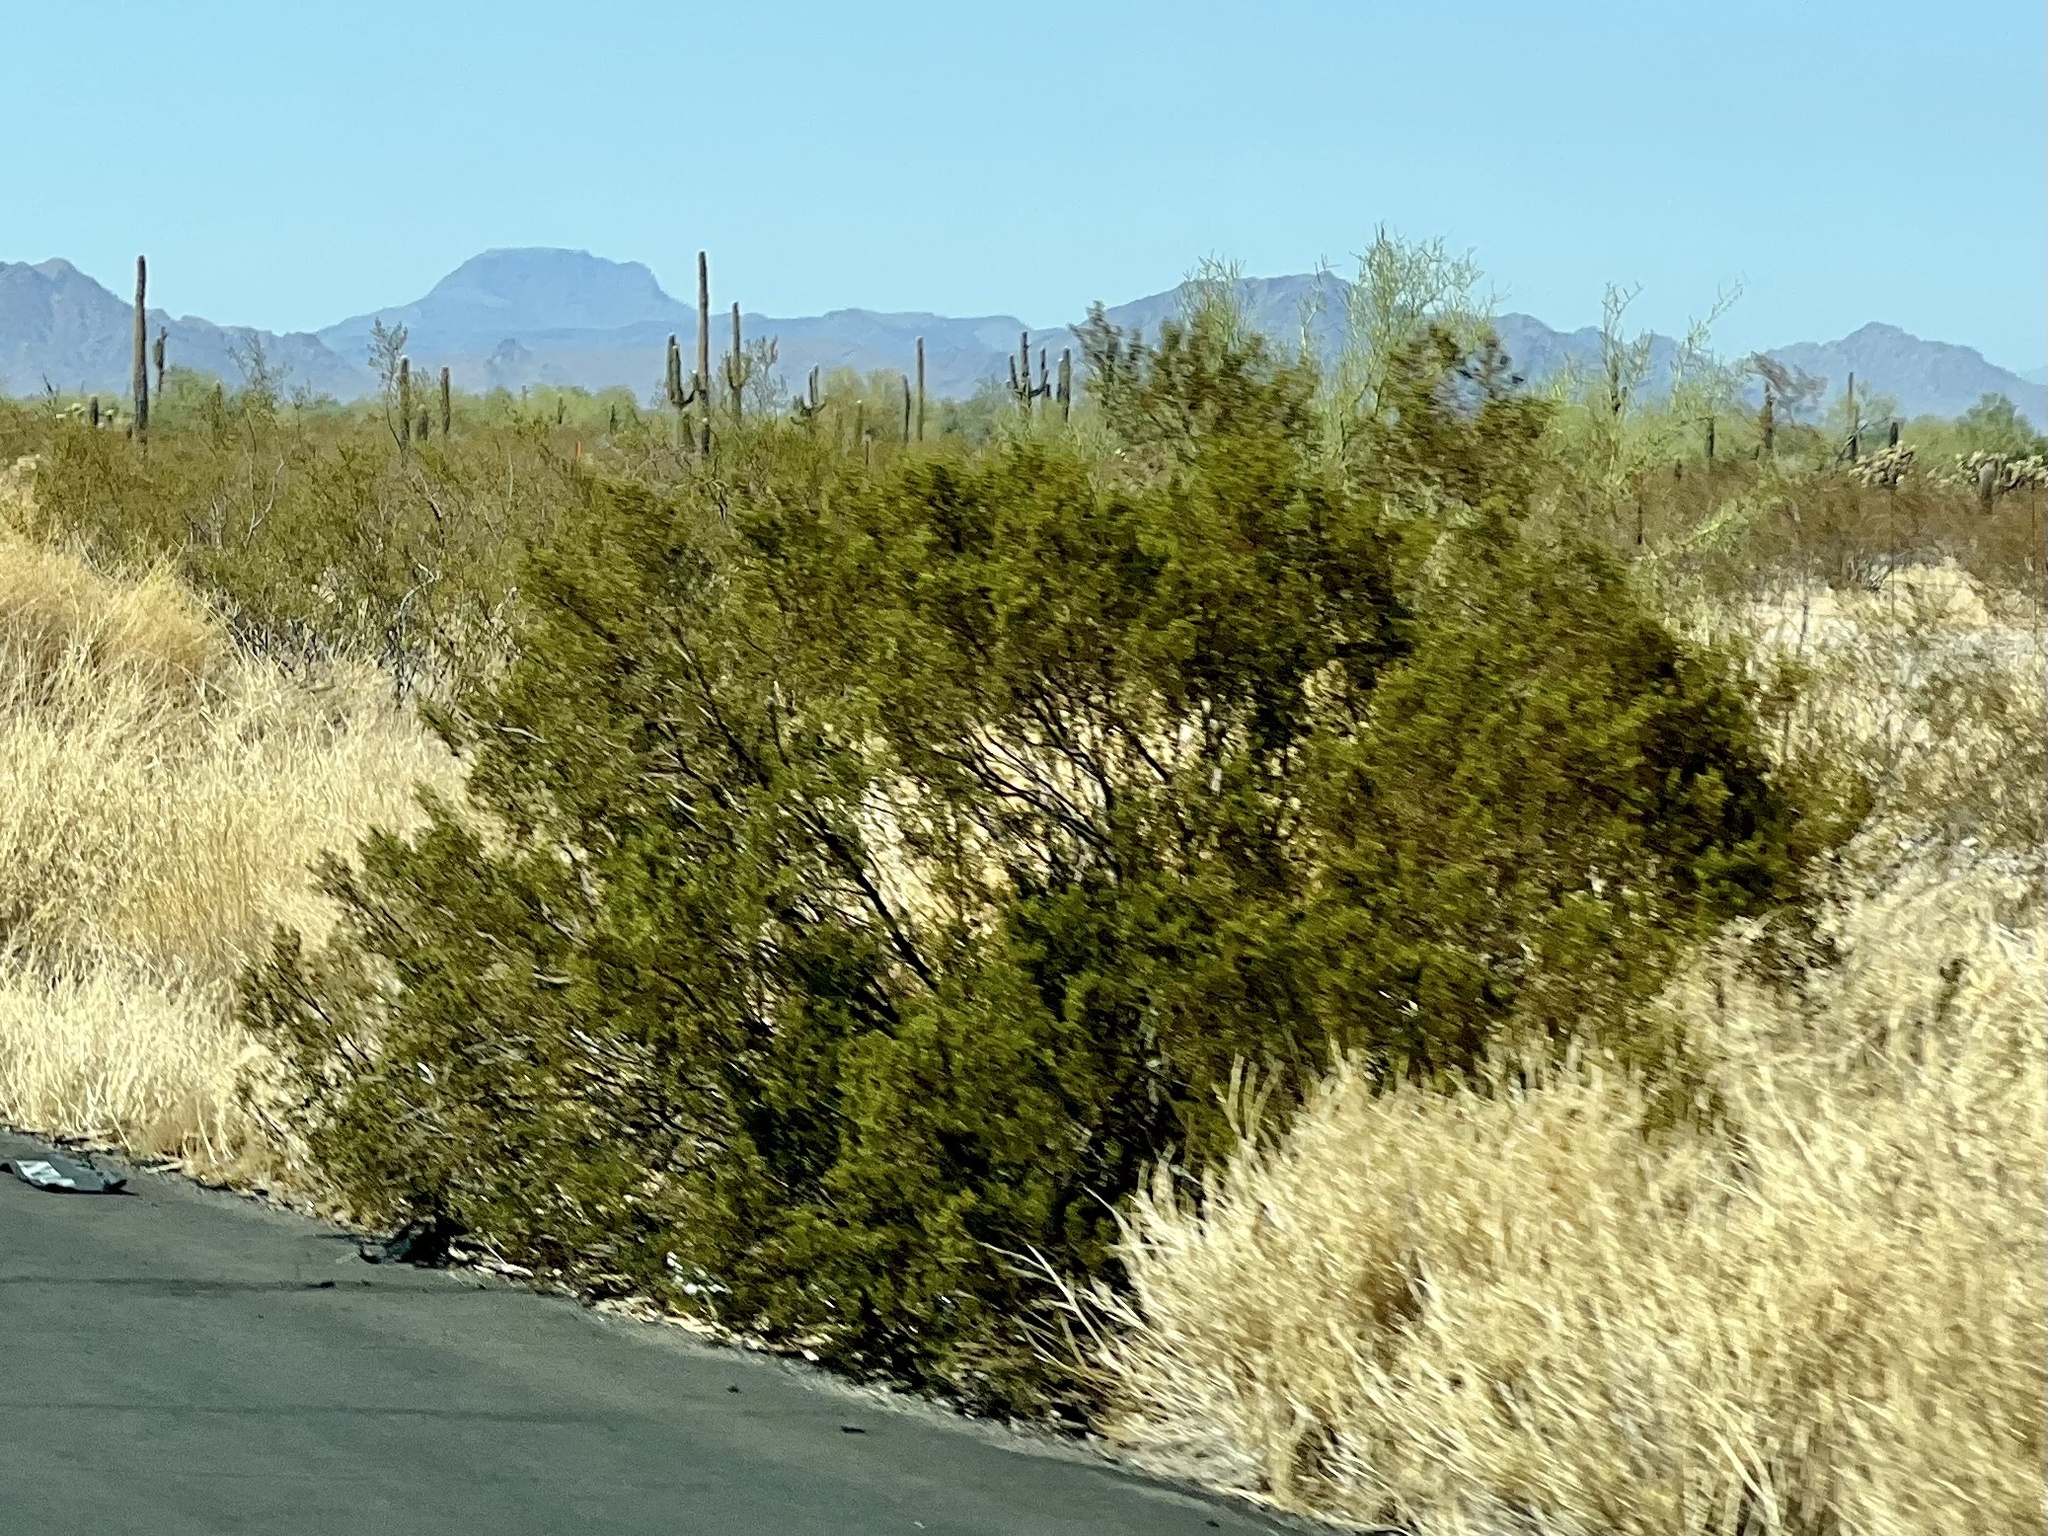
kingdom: Plantae
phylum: Tracheophyta
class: Magnoliopsida
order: Zygophyllales
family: Zygophyllaceae
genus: Larrea
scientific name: Larrea tridentata
